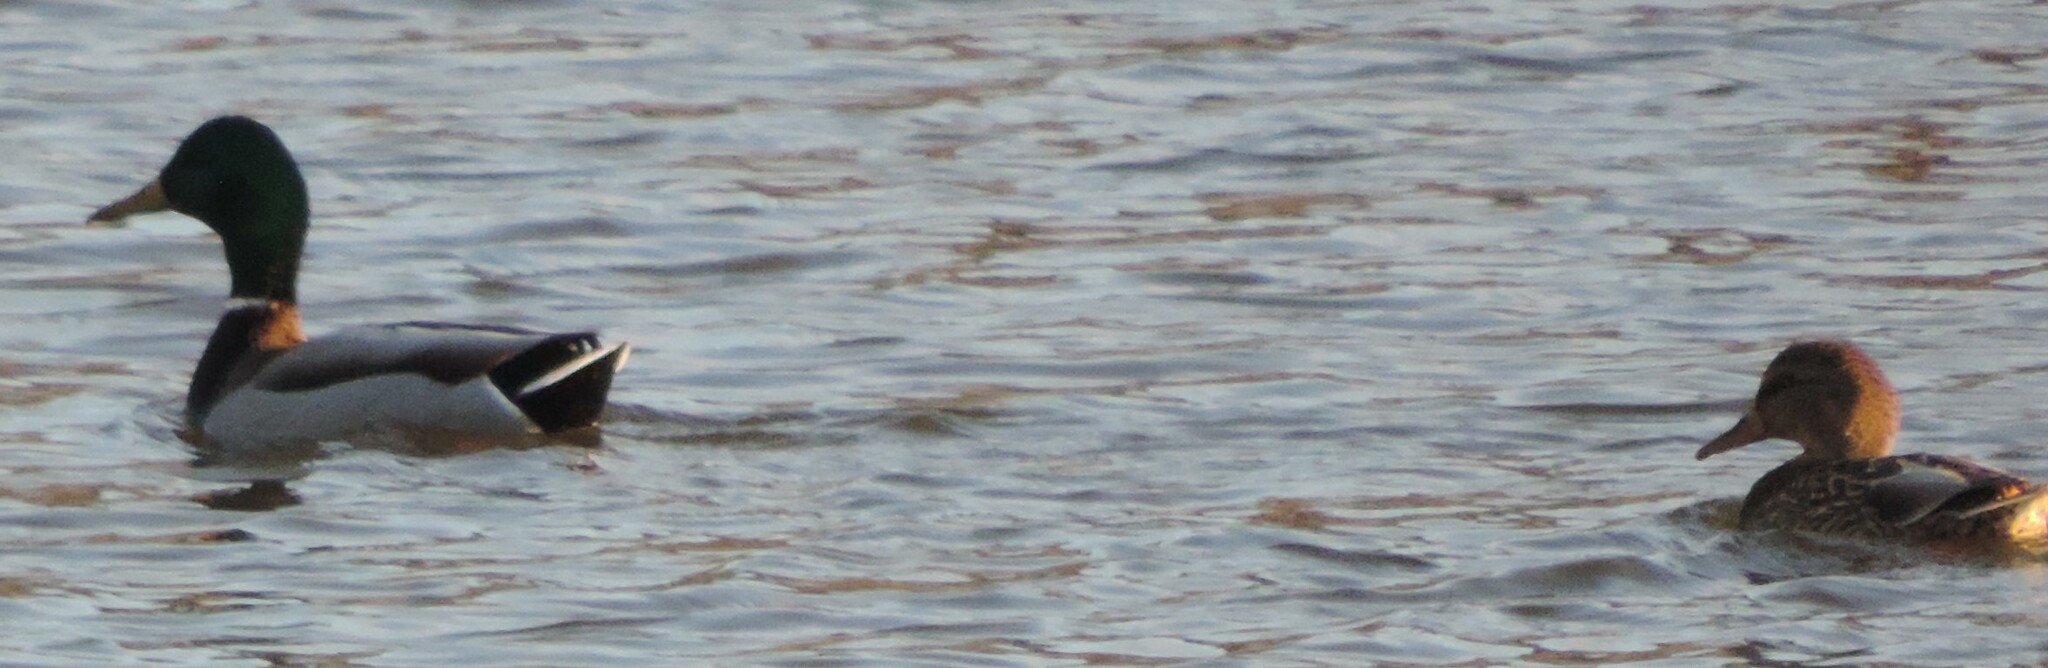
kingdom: Animalia
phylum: Chordata
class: Aves
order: Anseriformes
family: Anatidae
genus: Anas
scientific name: Anas platyrhynchos
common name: Mallard
